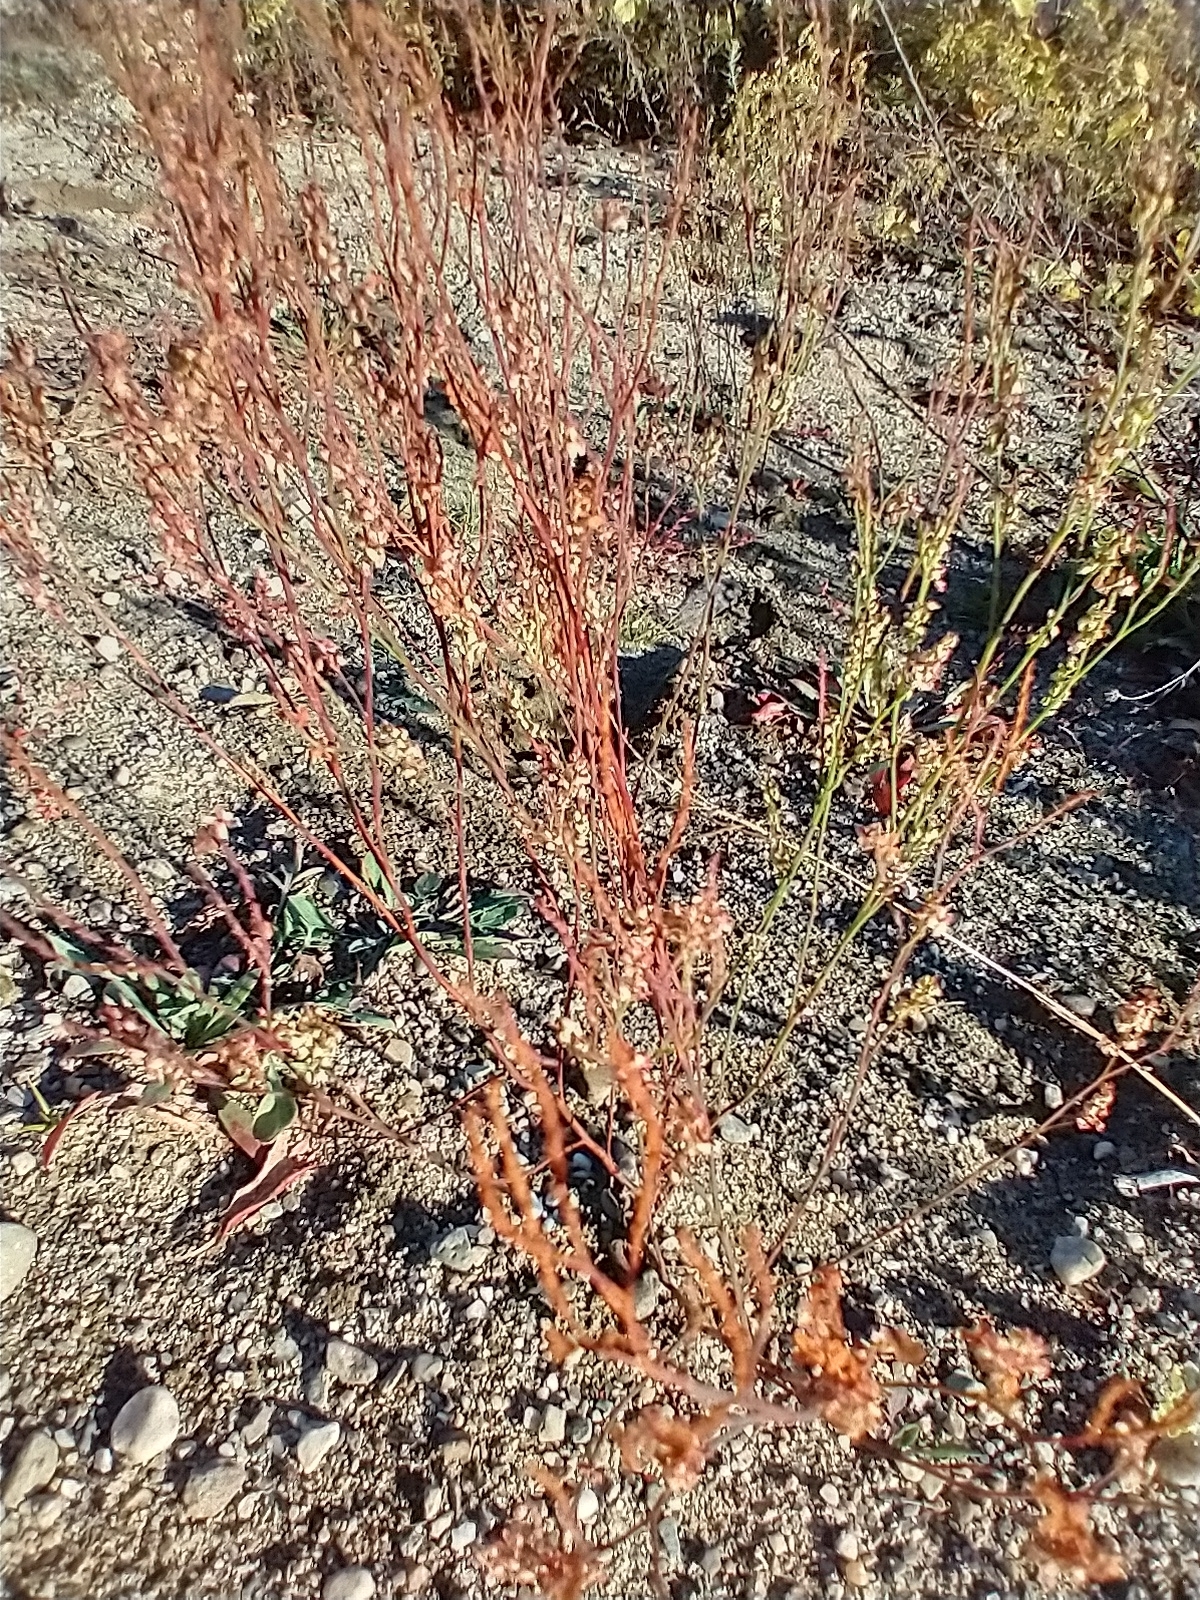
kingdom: Plantae
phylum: Tracheophyta
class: Magnoliopsida
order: Caryophyllales
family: Polygonaceae
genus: Polygonella
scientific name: Polygonella articulata
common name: Coastal jointweed
